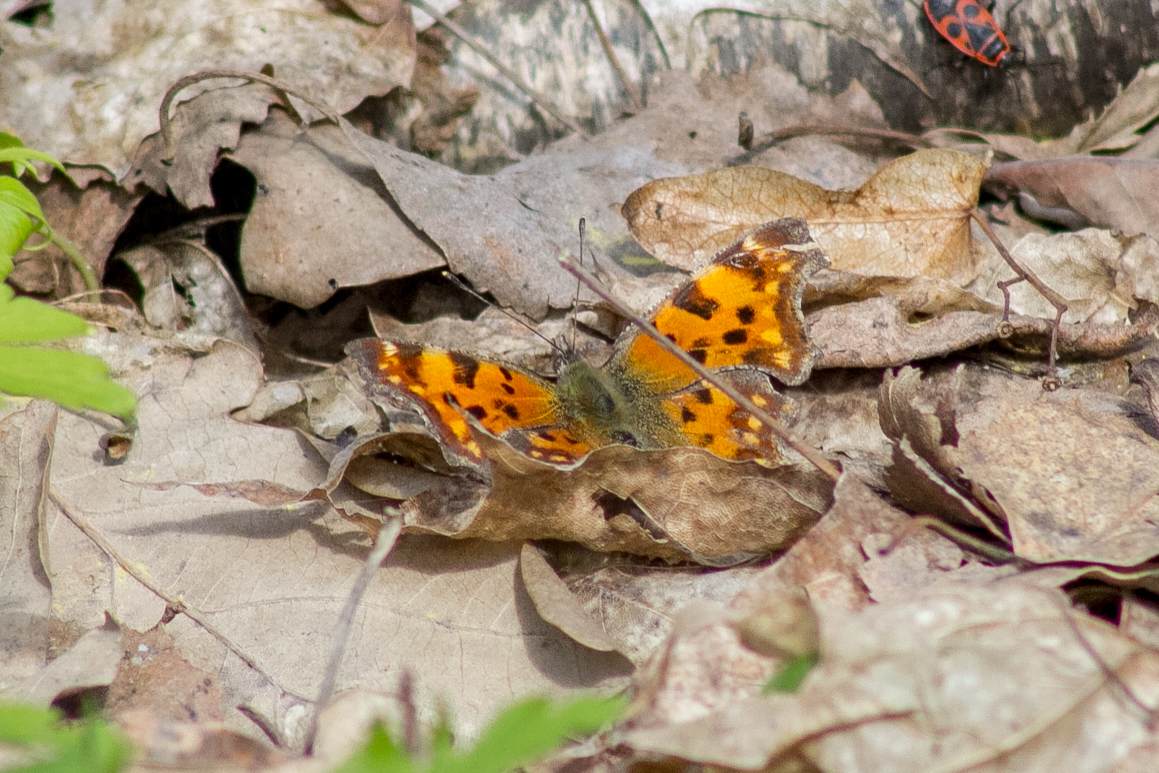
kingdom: Animalia
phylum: Arthropoda
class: Insecta
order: Lepidoptera
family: Nymphalidae
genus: Polygonia
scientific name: Polygonia c-album
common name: Comma
